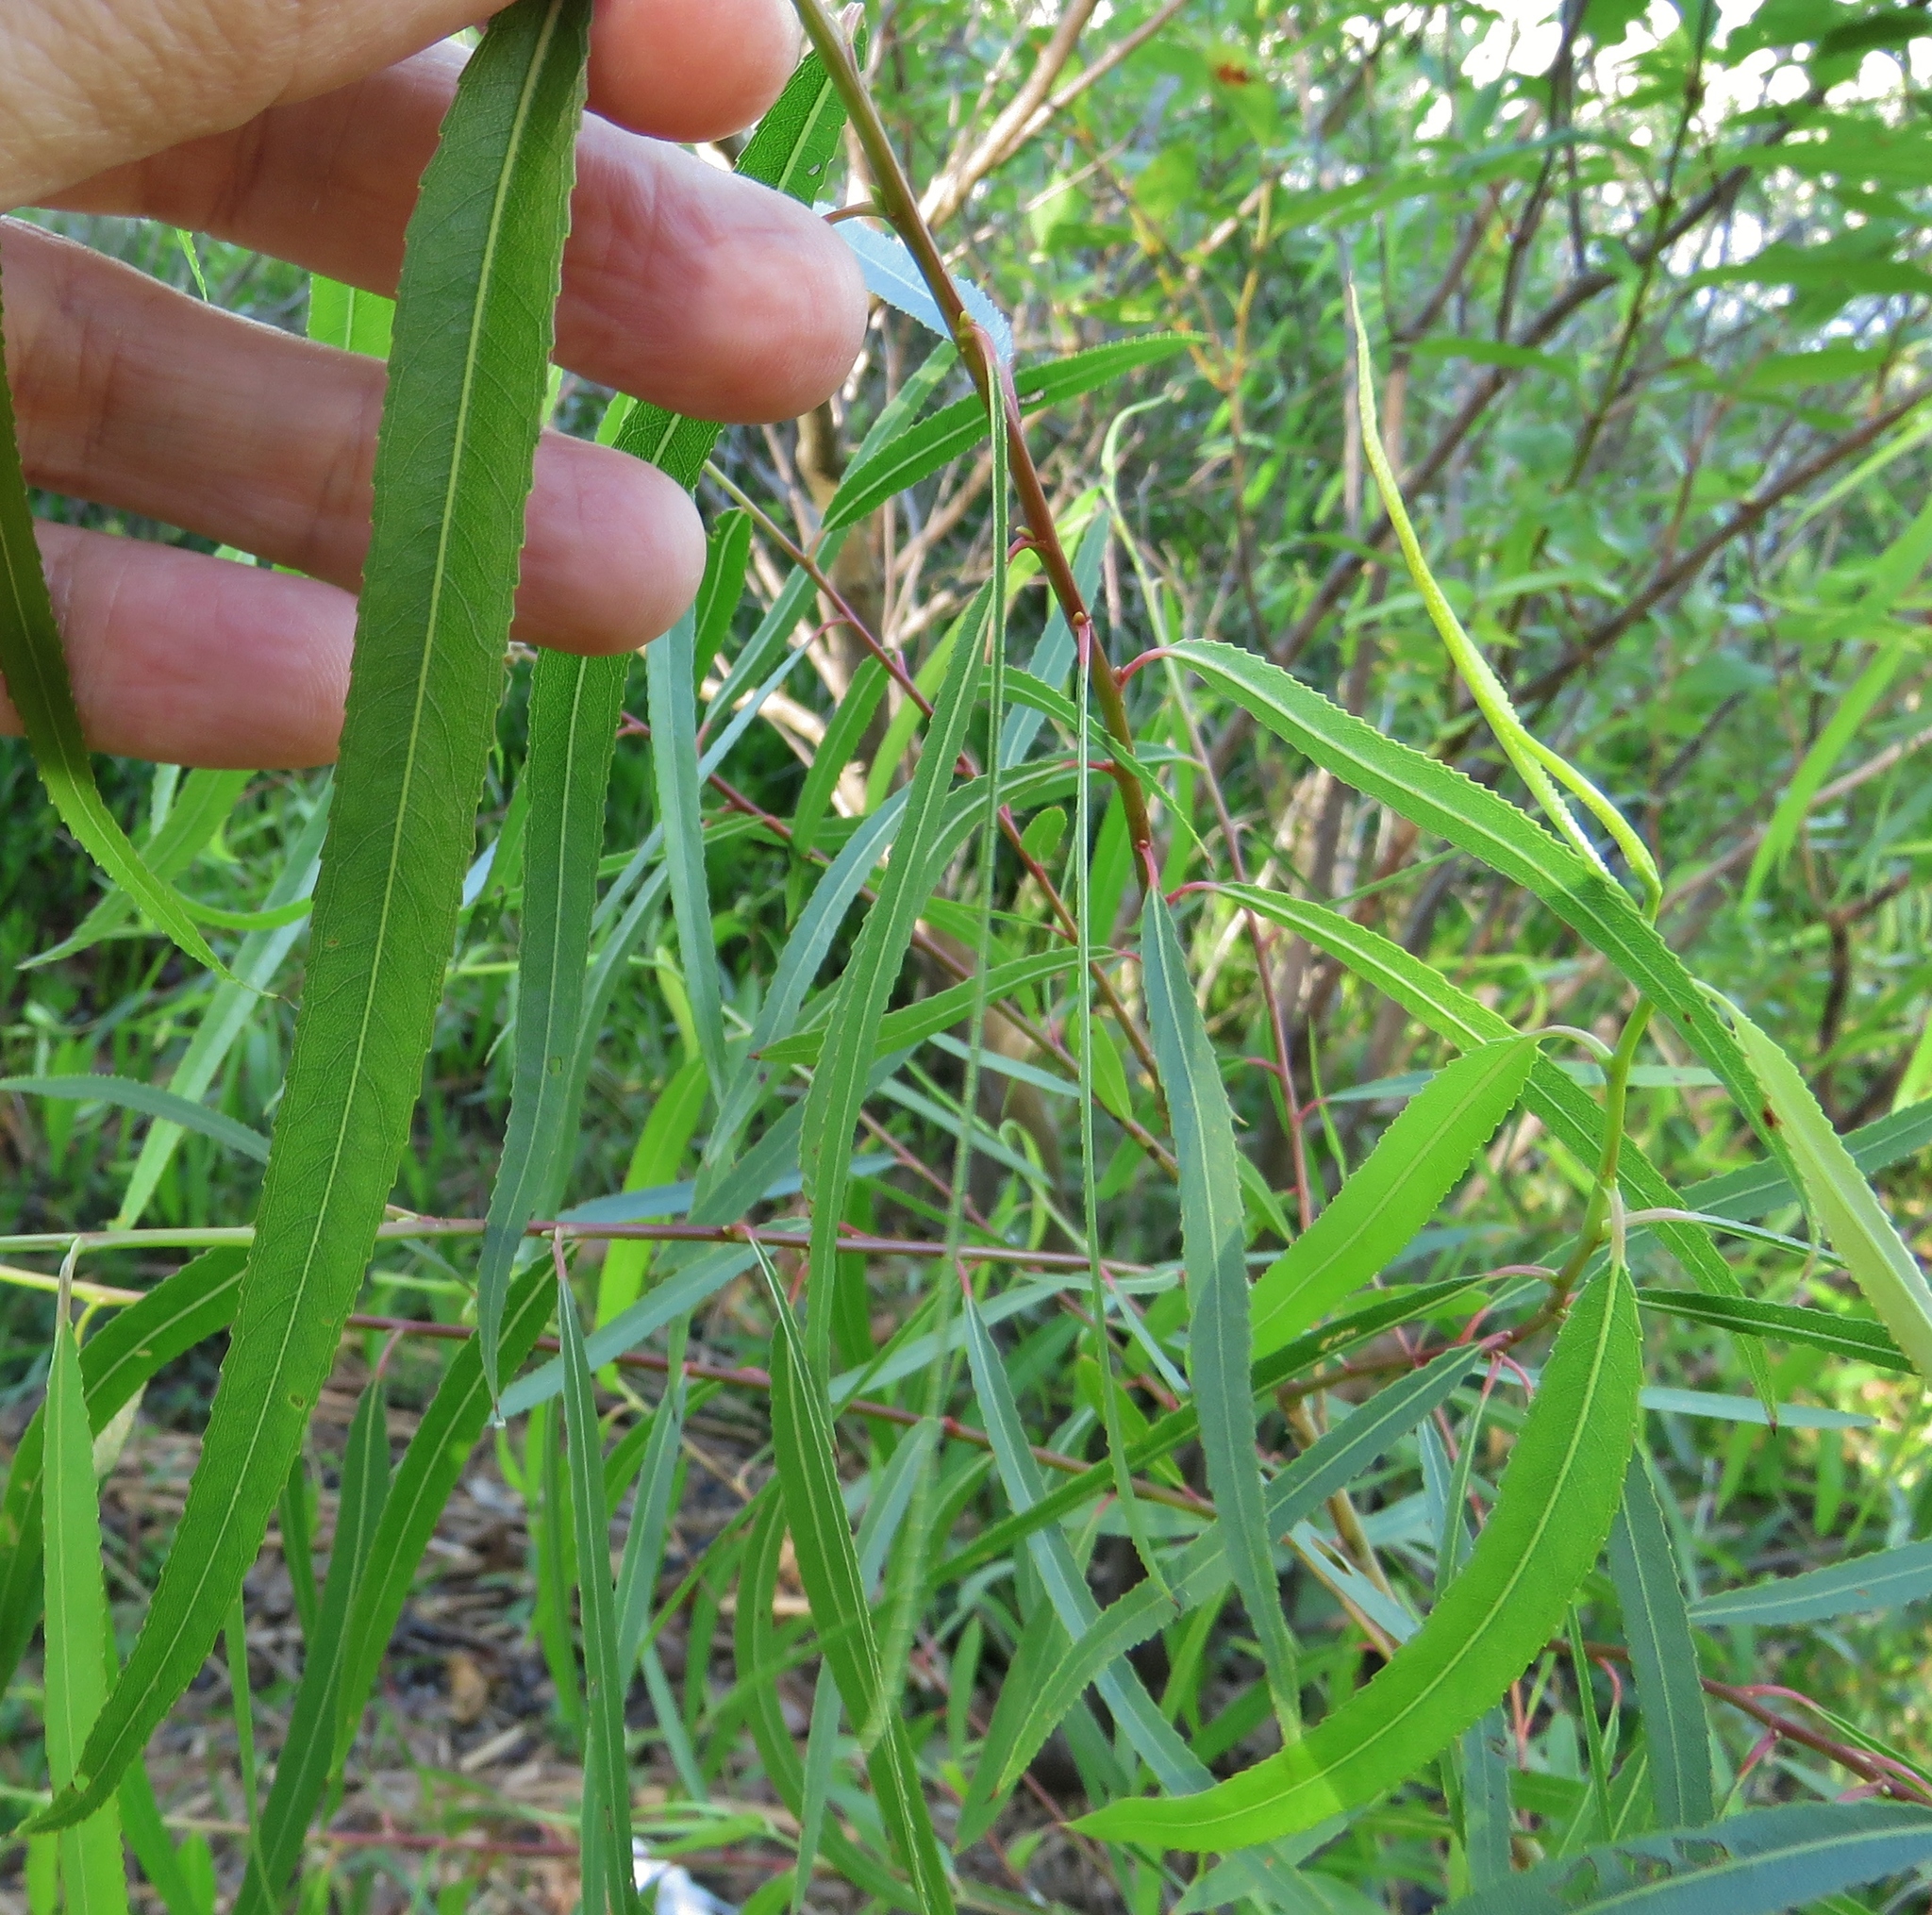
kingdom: Plantae
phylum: Tracheophyta
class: Magnoliopsida
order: Malpighiales
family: Salicaceae
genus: Salix
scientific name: Salix nigra
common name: Black willow
